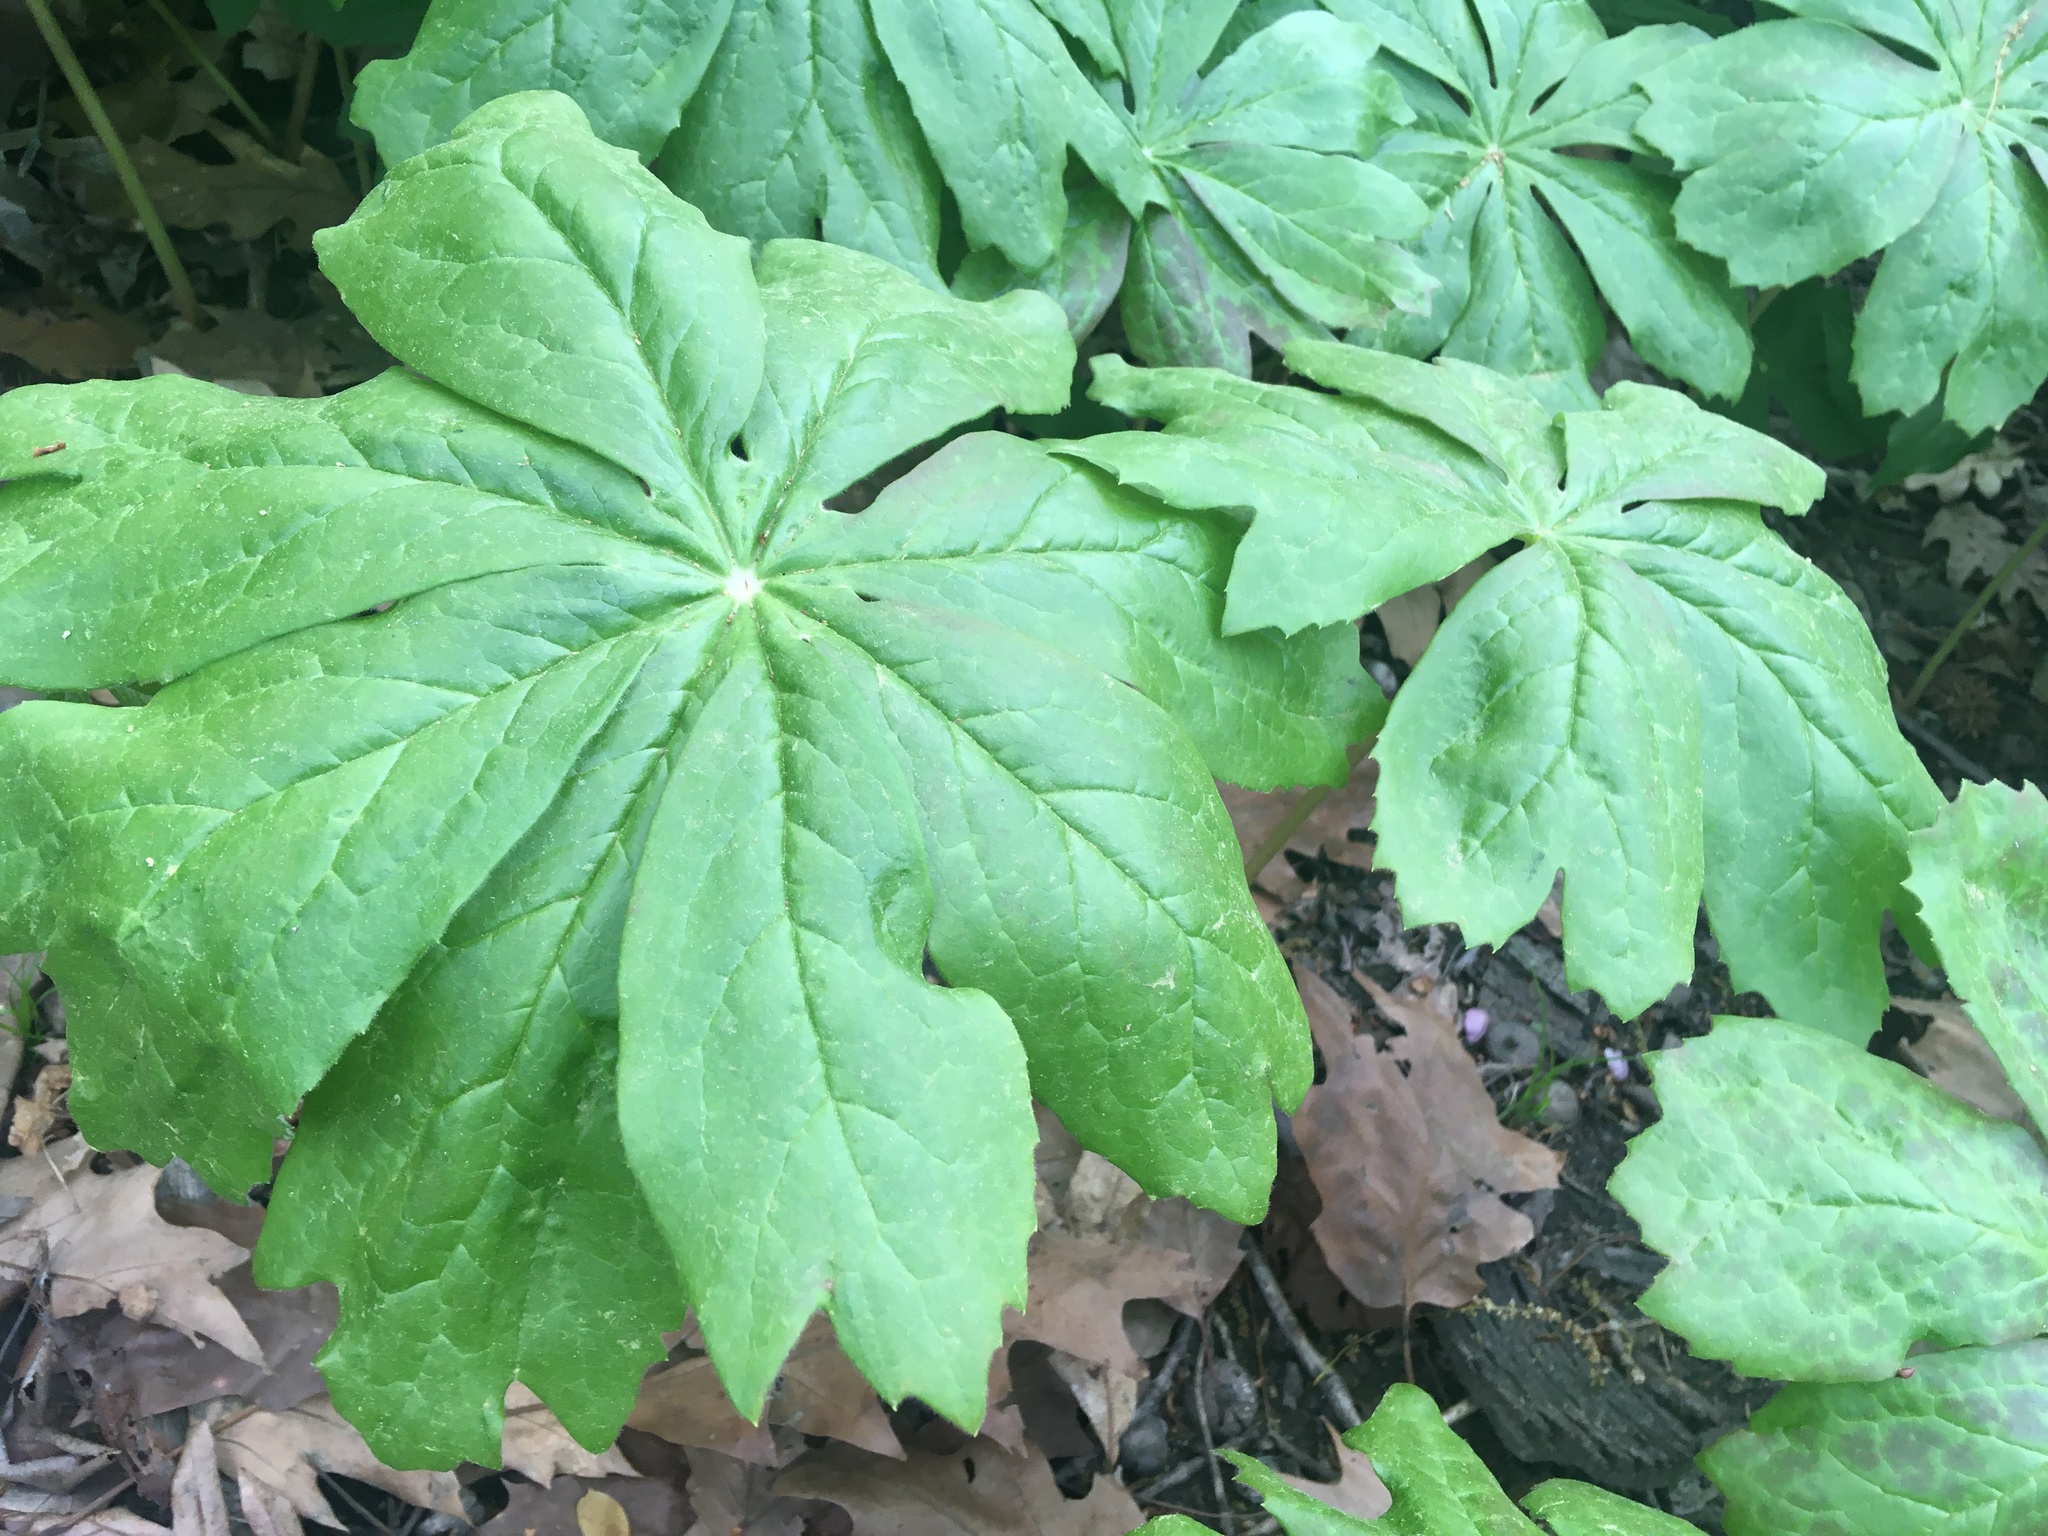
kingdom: Plantae
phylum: Tracheophyta
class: Magnoliopsida
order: Ranunculales
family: Berberidaceae
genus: Podophyllum
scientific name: Podophyllum peltatum
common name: Wild mandrake
